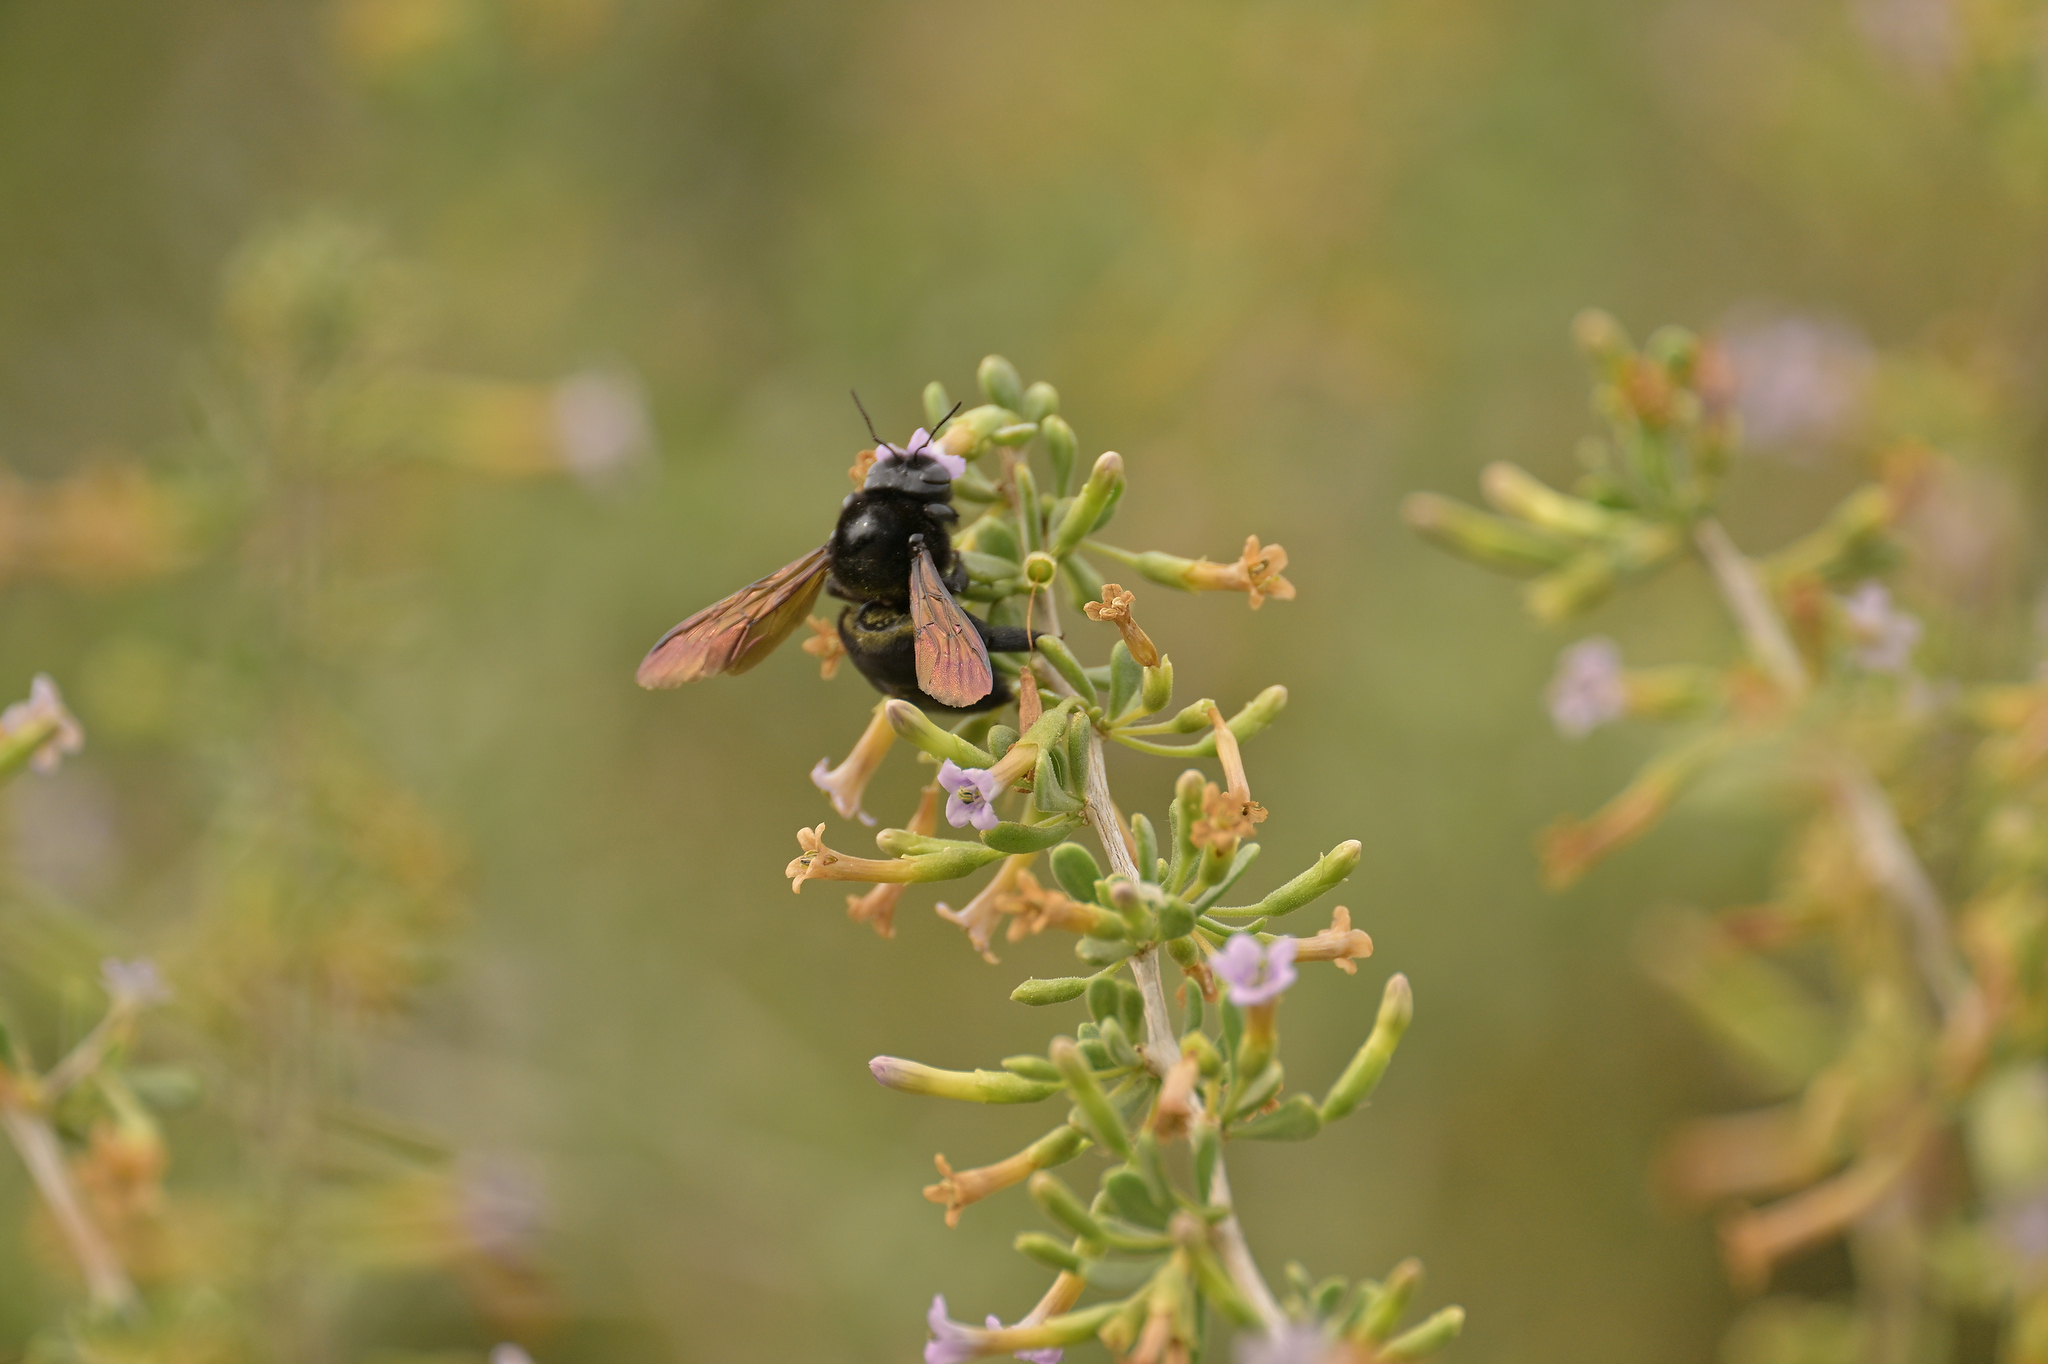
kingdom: Animalia
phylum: Arthropoda
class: Insecta
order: Hymenoptera
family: Apidae
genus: Xylocopa
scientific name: Xylocopa sonorina
